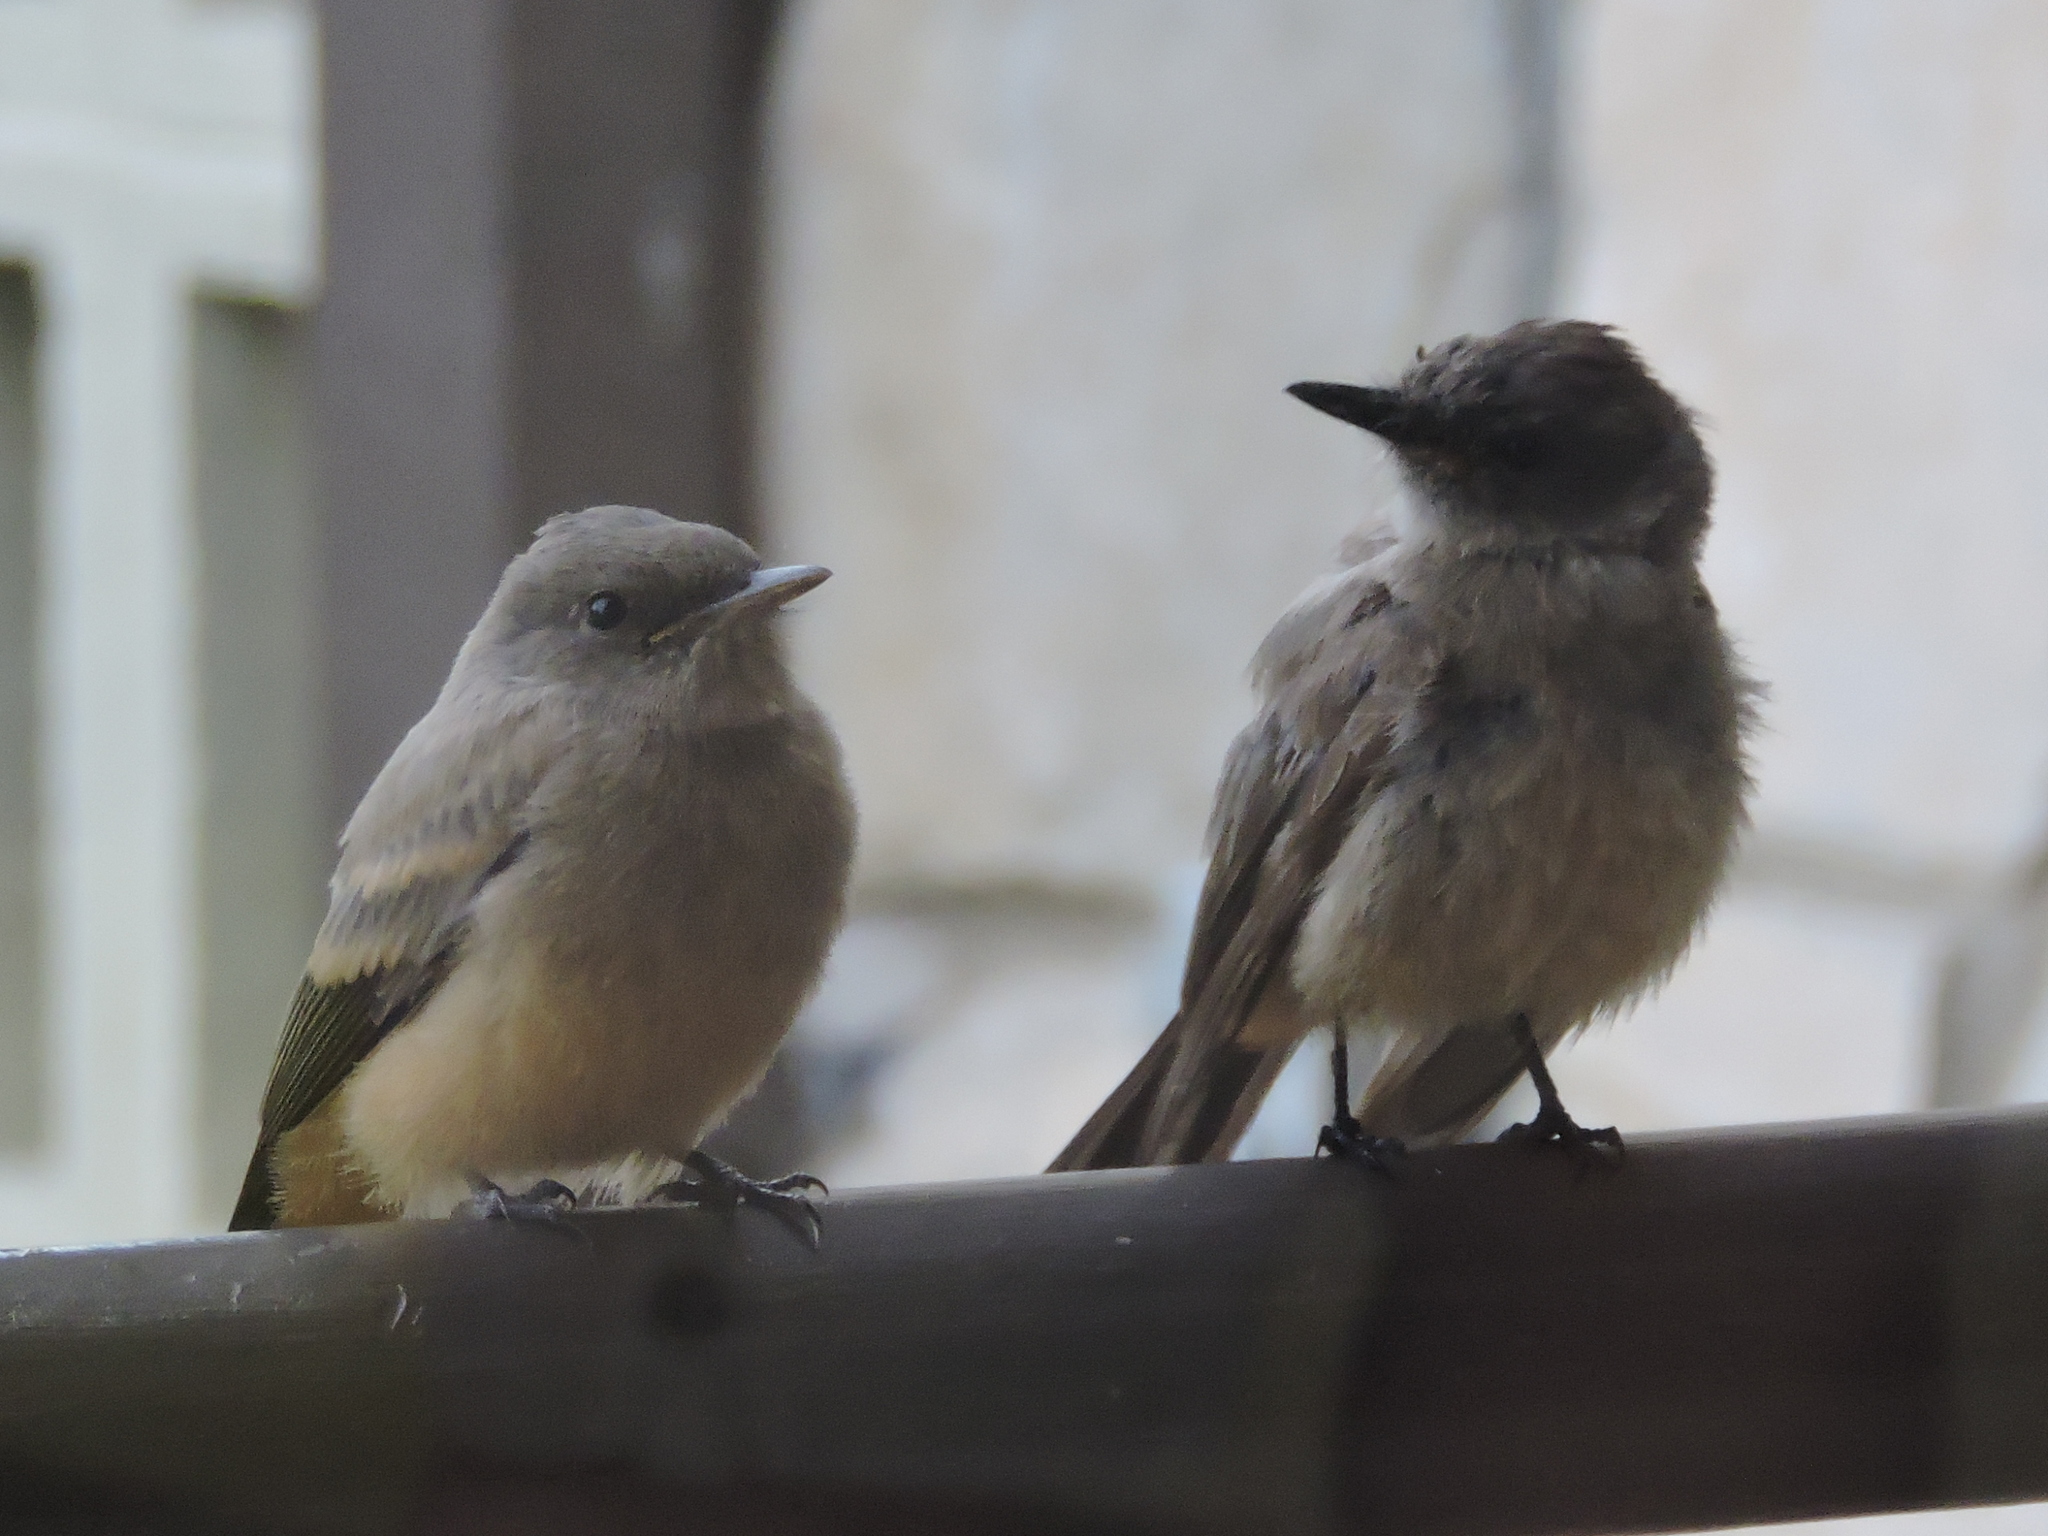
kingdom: Animalia
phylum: Chordata
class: Aves
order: Passeriformes
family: Tyrannidae
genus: Sayornis
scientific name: Sayornis saya
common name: Say's phoebe
